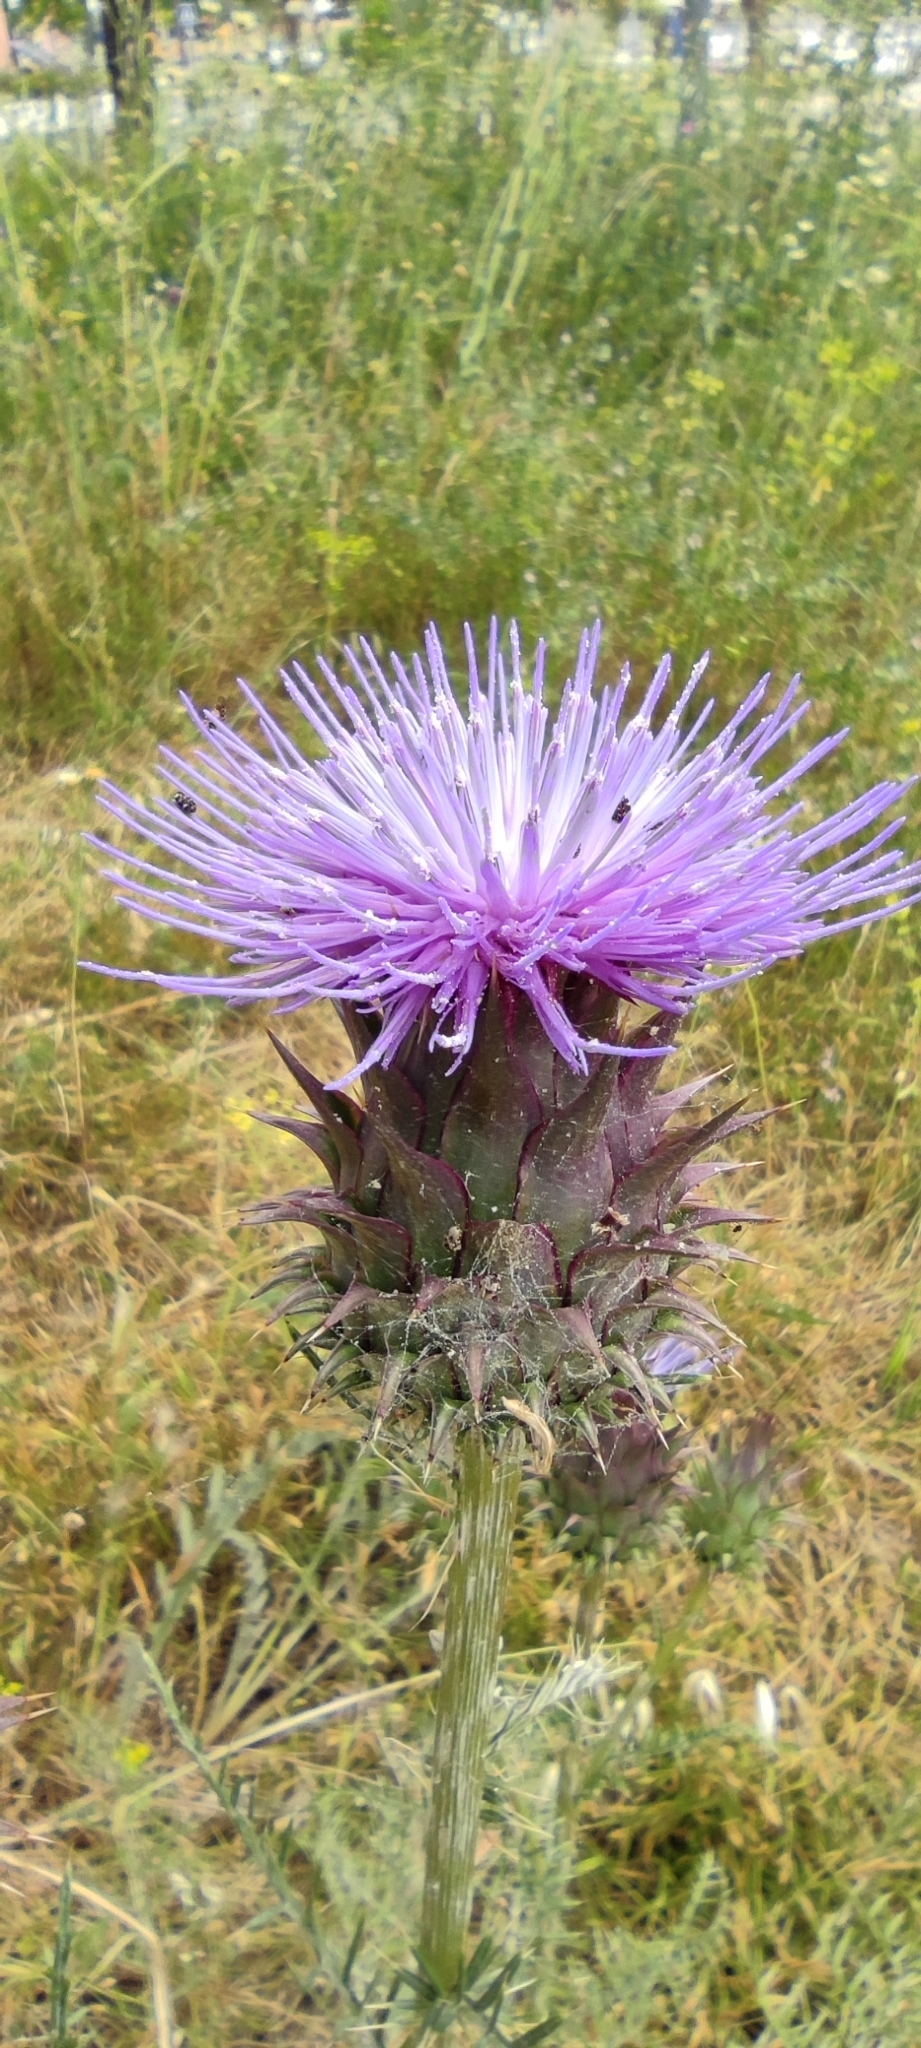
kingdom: Plantae
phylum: Tracheophyta
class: Magnoliopsida
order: Asterales
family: Asteraceae
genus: Cynara
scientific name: Cynara humilis
